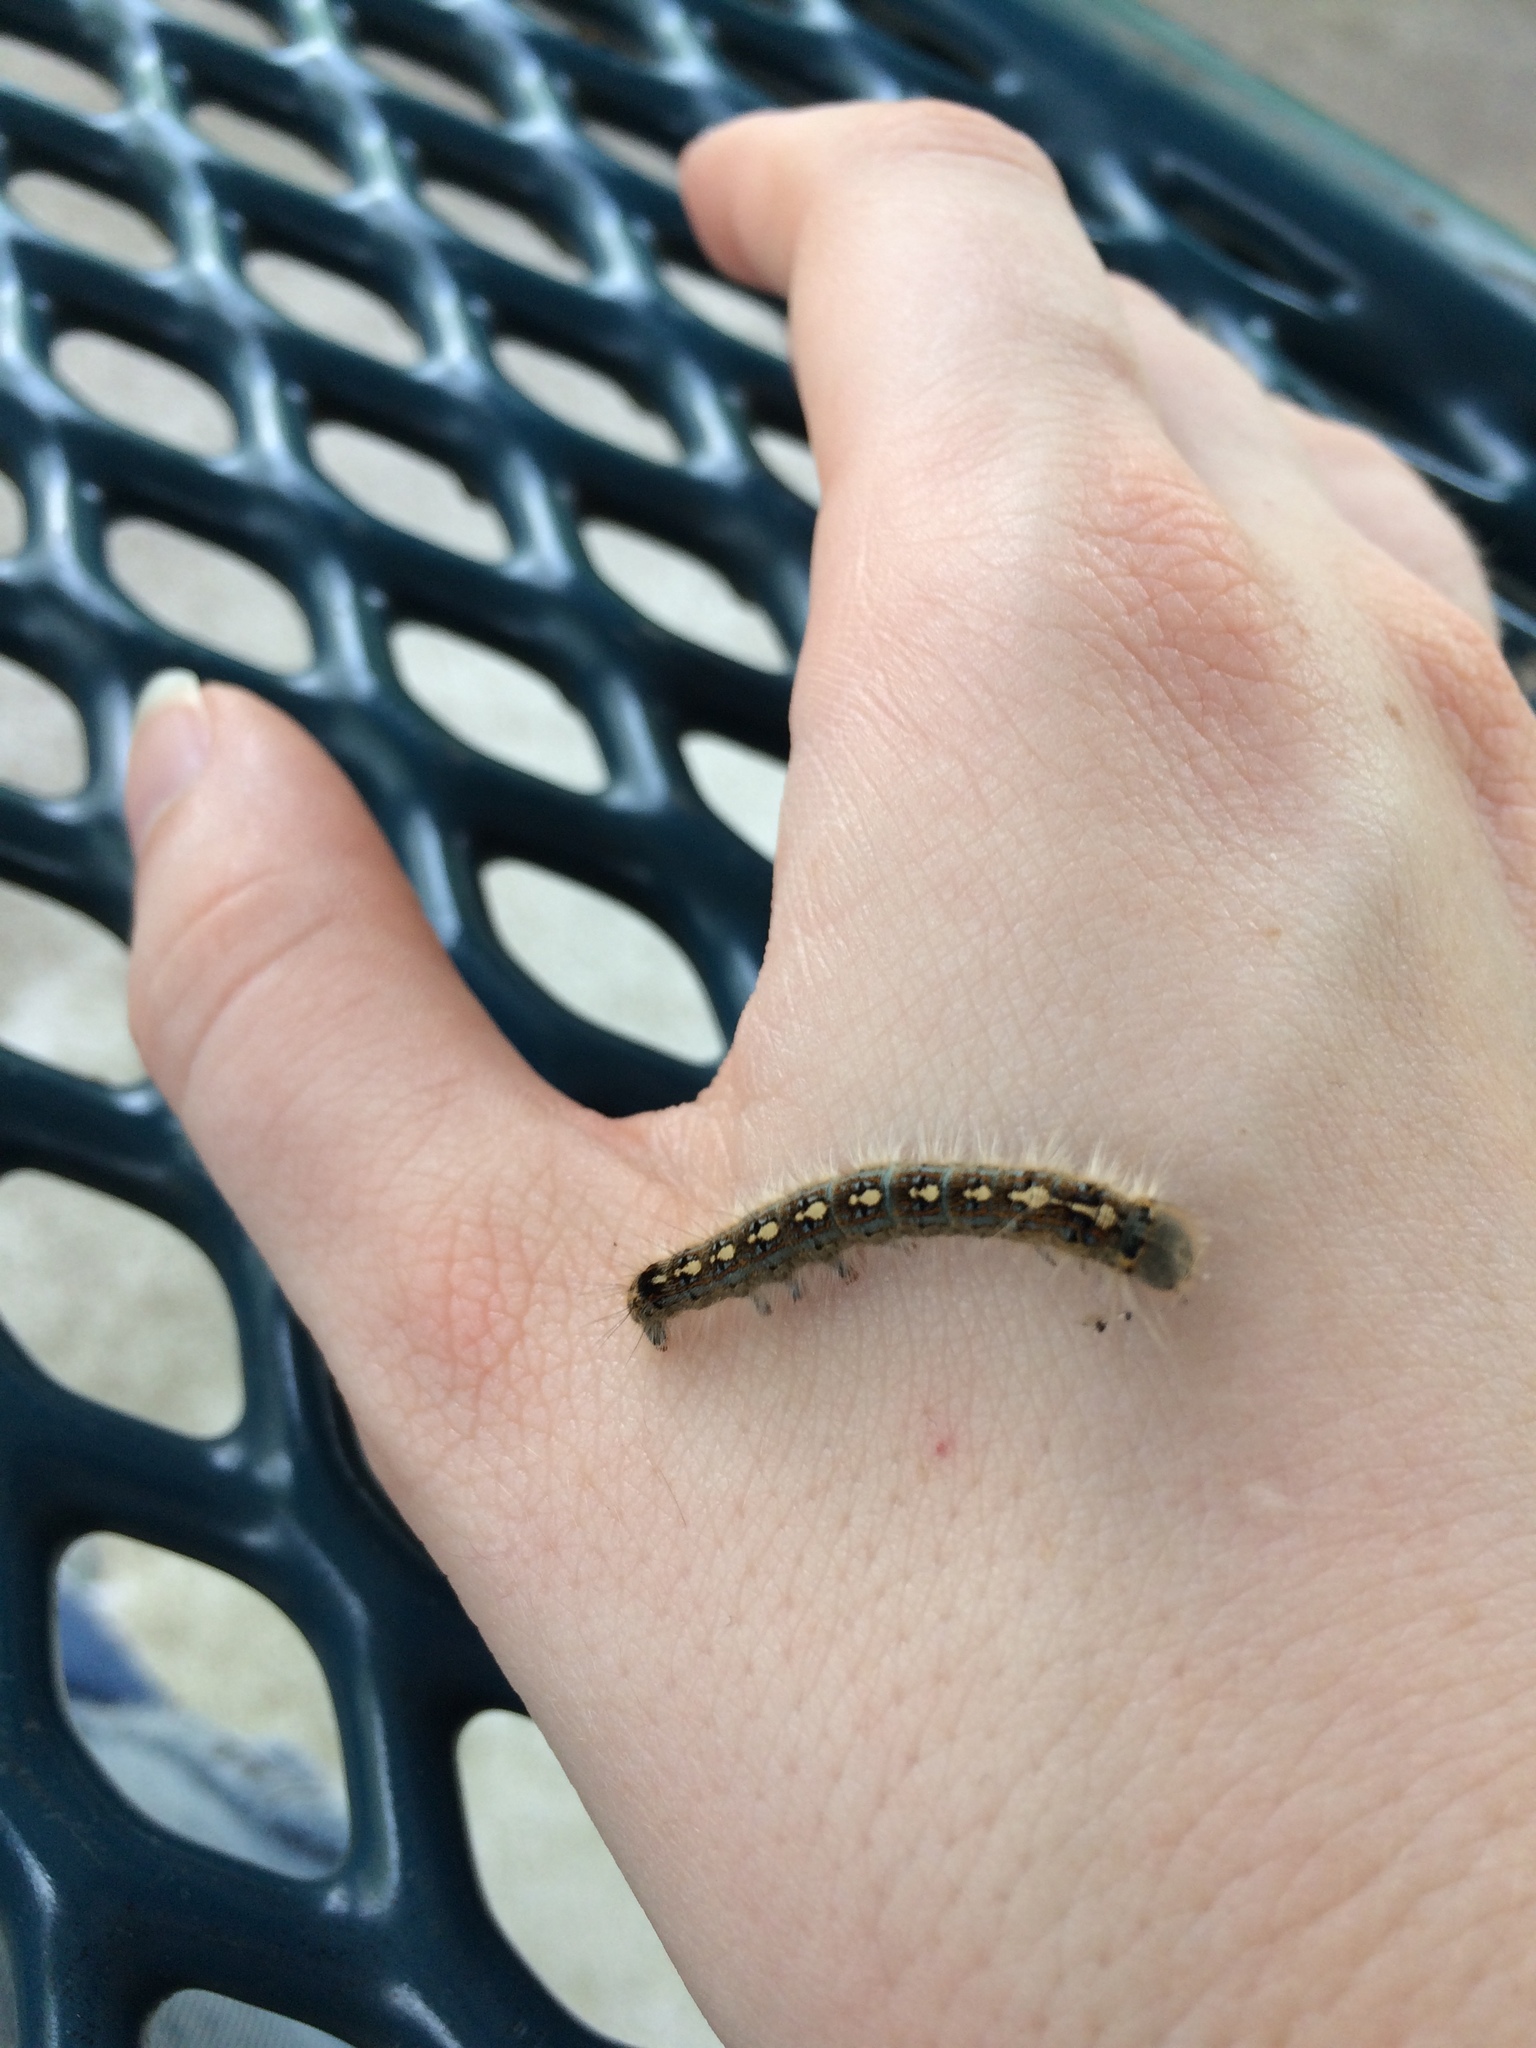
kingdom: Animalia
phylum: Arthropoda
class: Insecta
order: Lepidoptera
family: Lasiocampidae
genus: Malacosoma
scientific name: Malacosoma disstria
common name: Forest tent caterpillar
